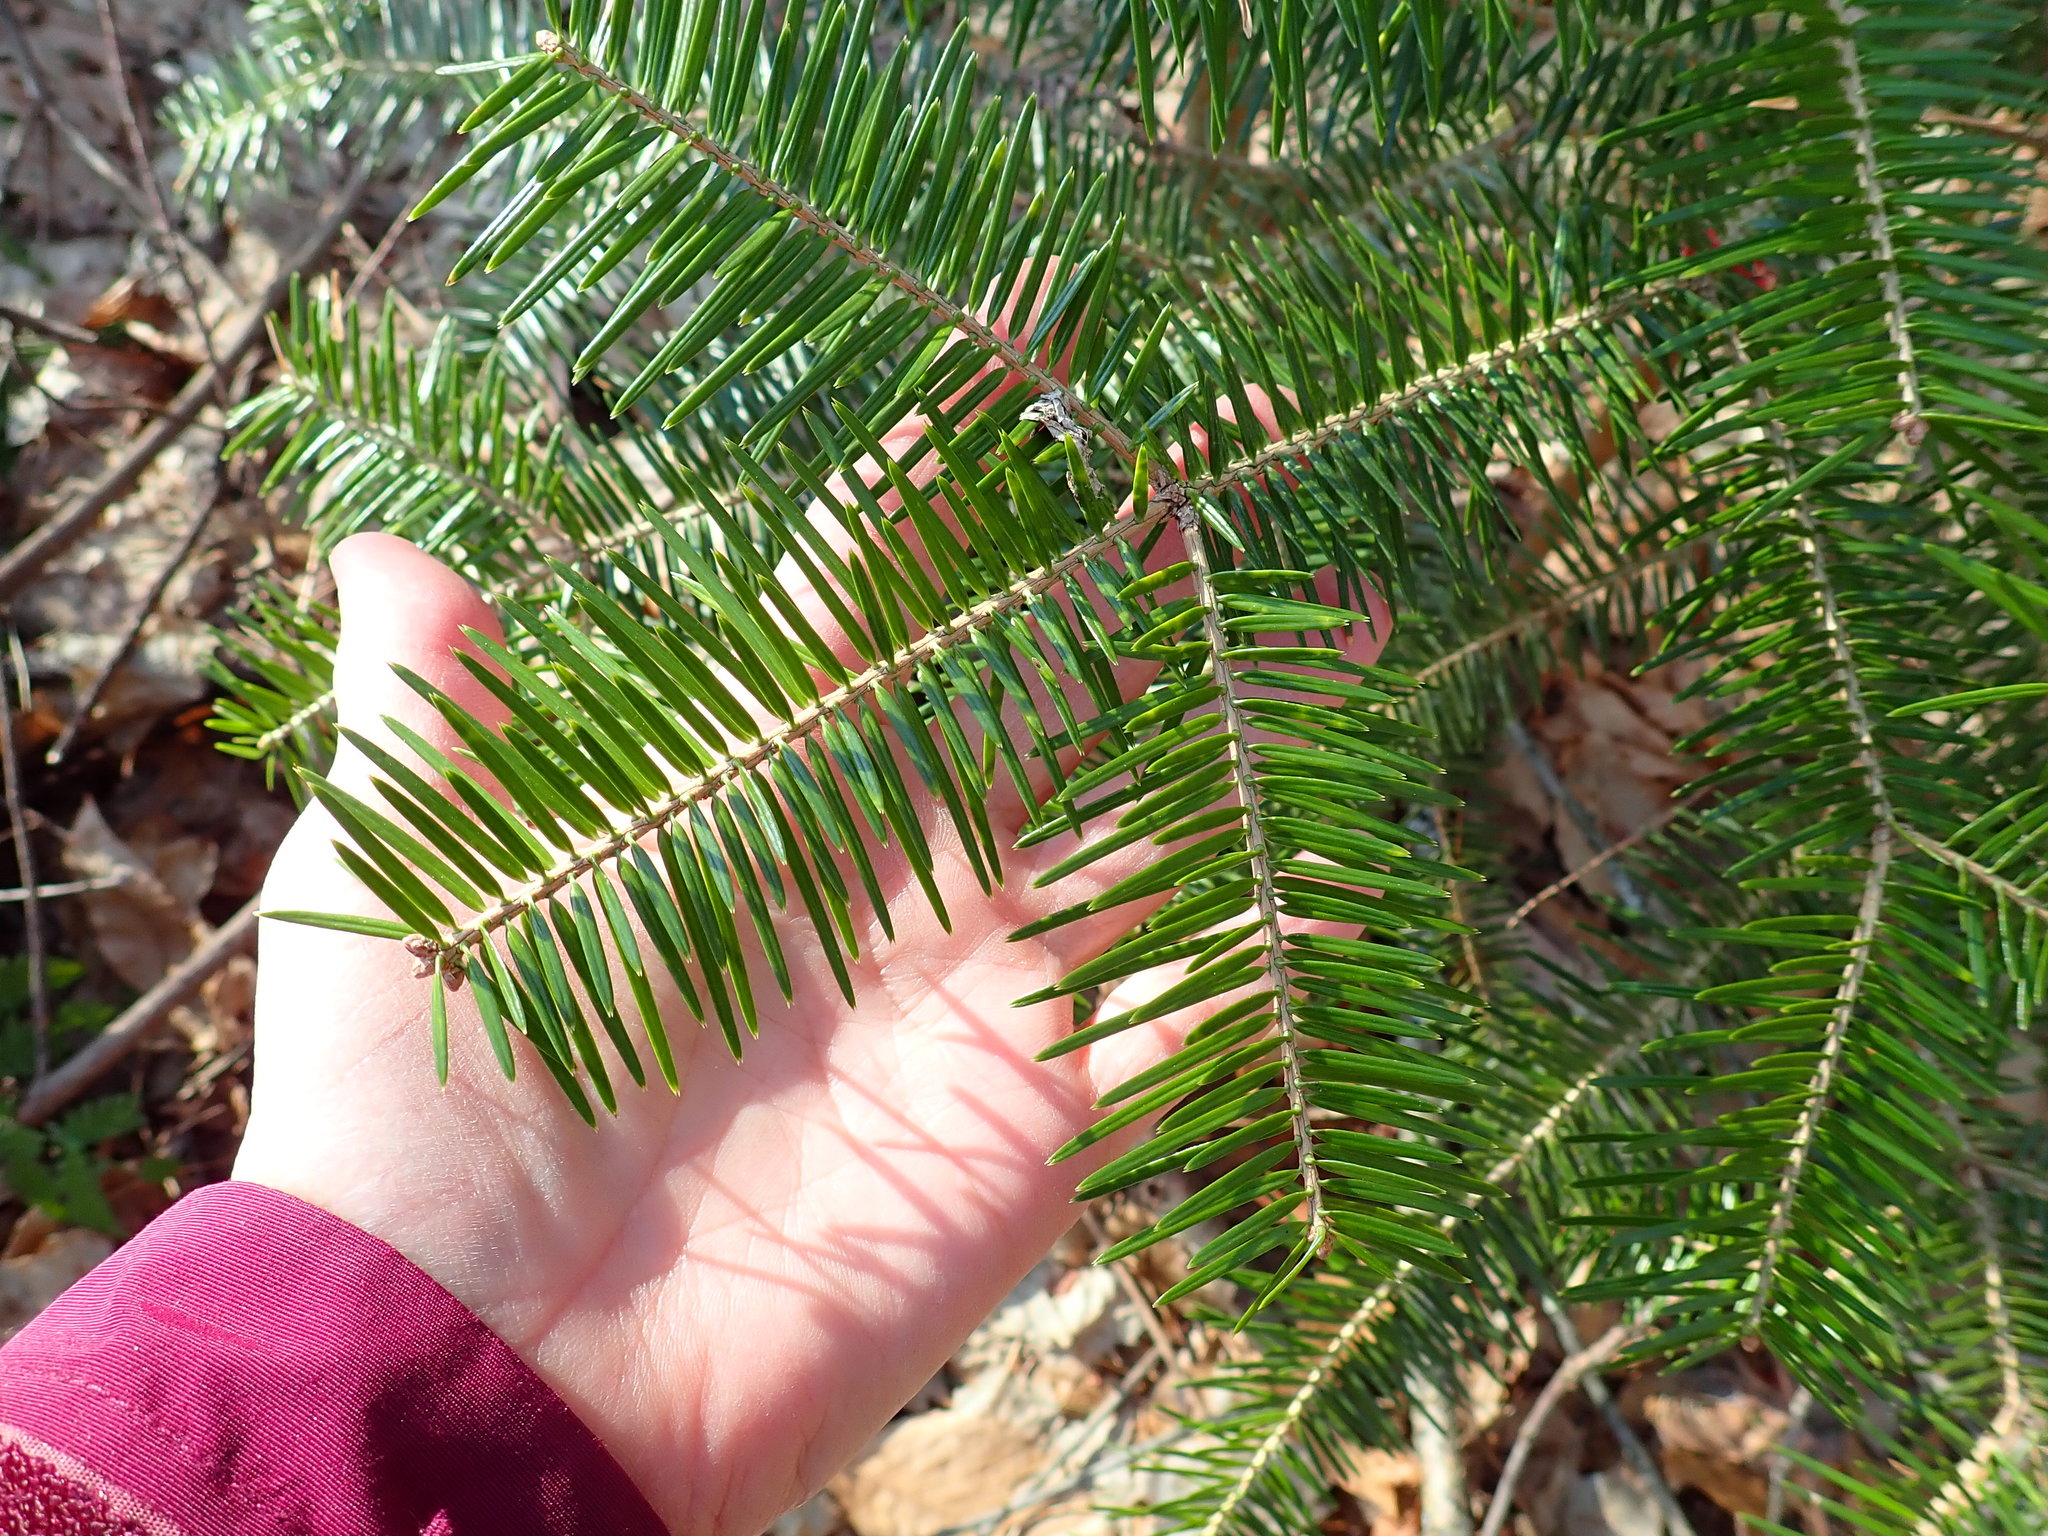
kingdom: Plantae
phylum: Tracheophyta
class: Pinopsida
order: Pinales
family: Pinaceae
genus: Abies
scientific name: Abies balsamea
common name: Balsam fir
